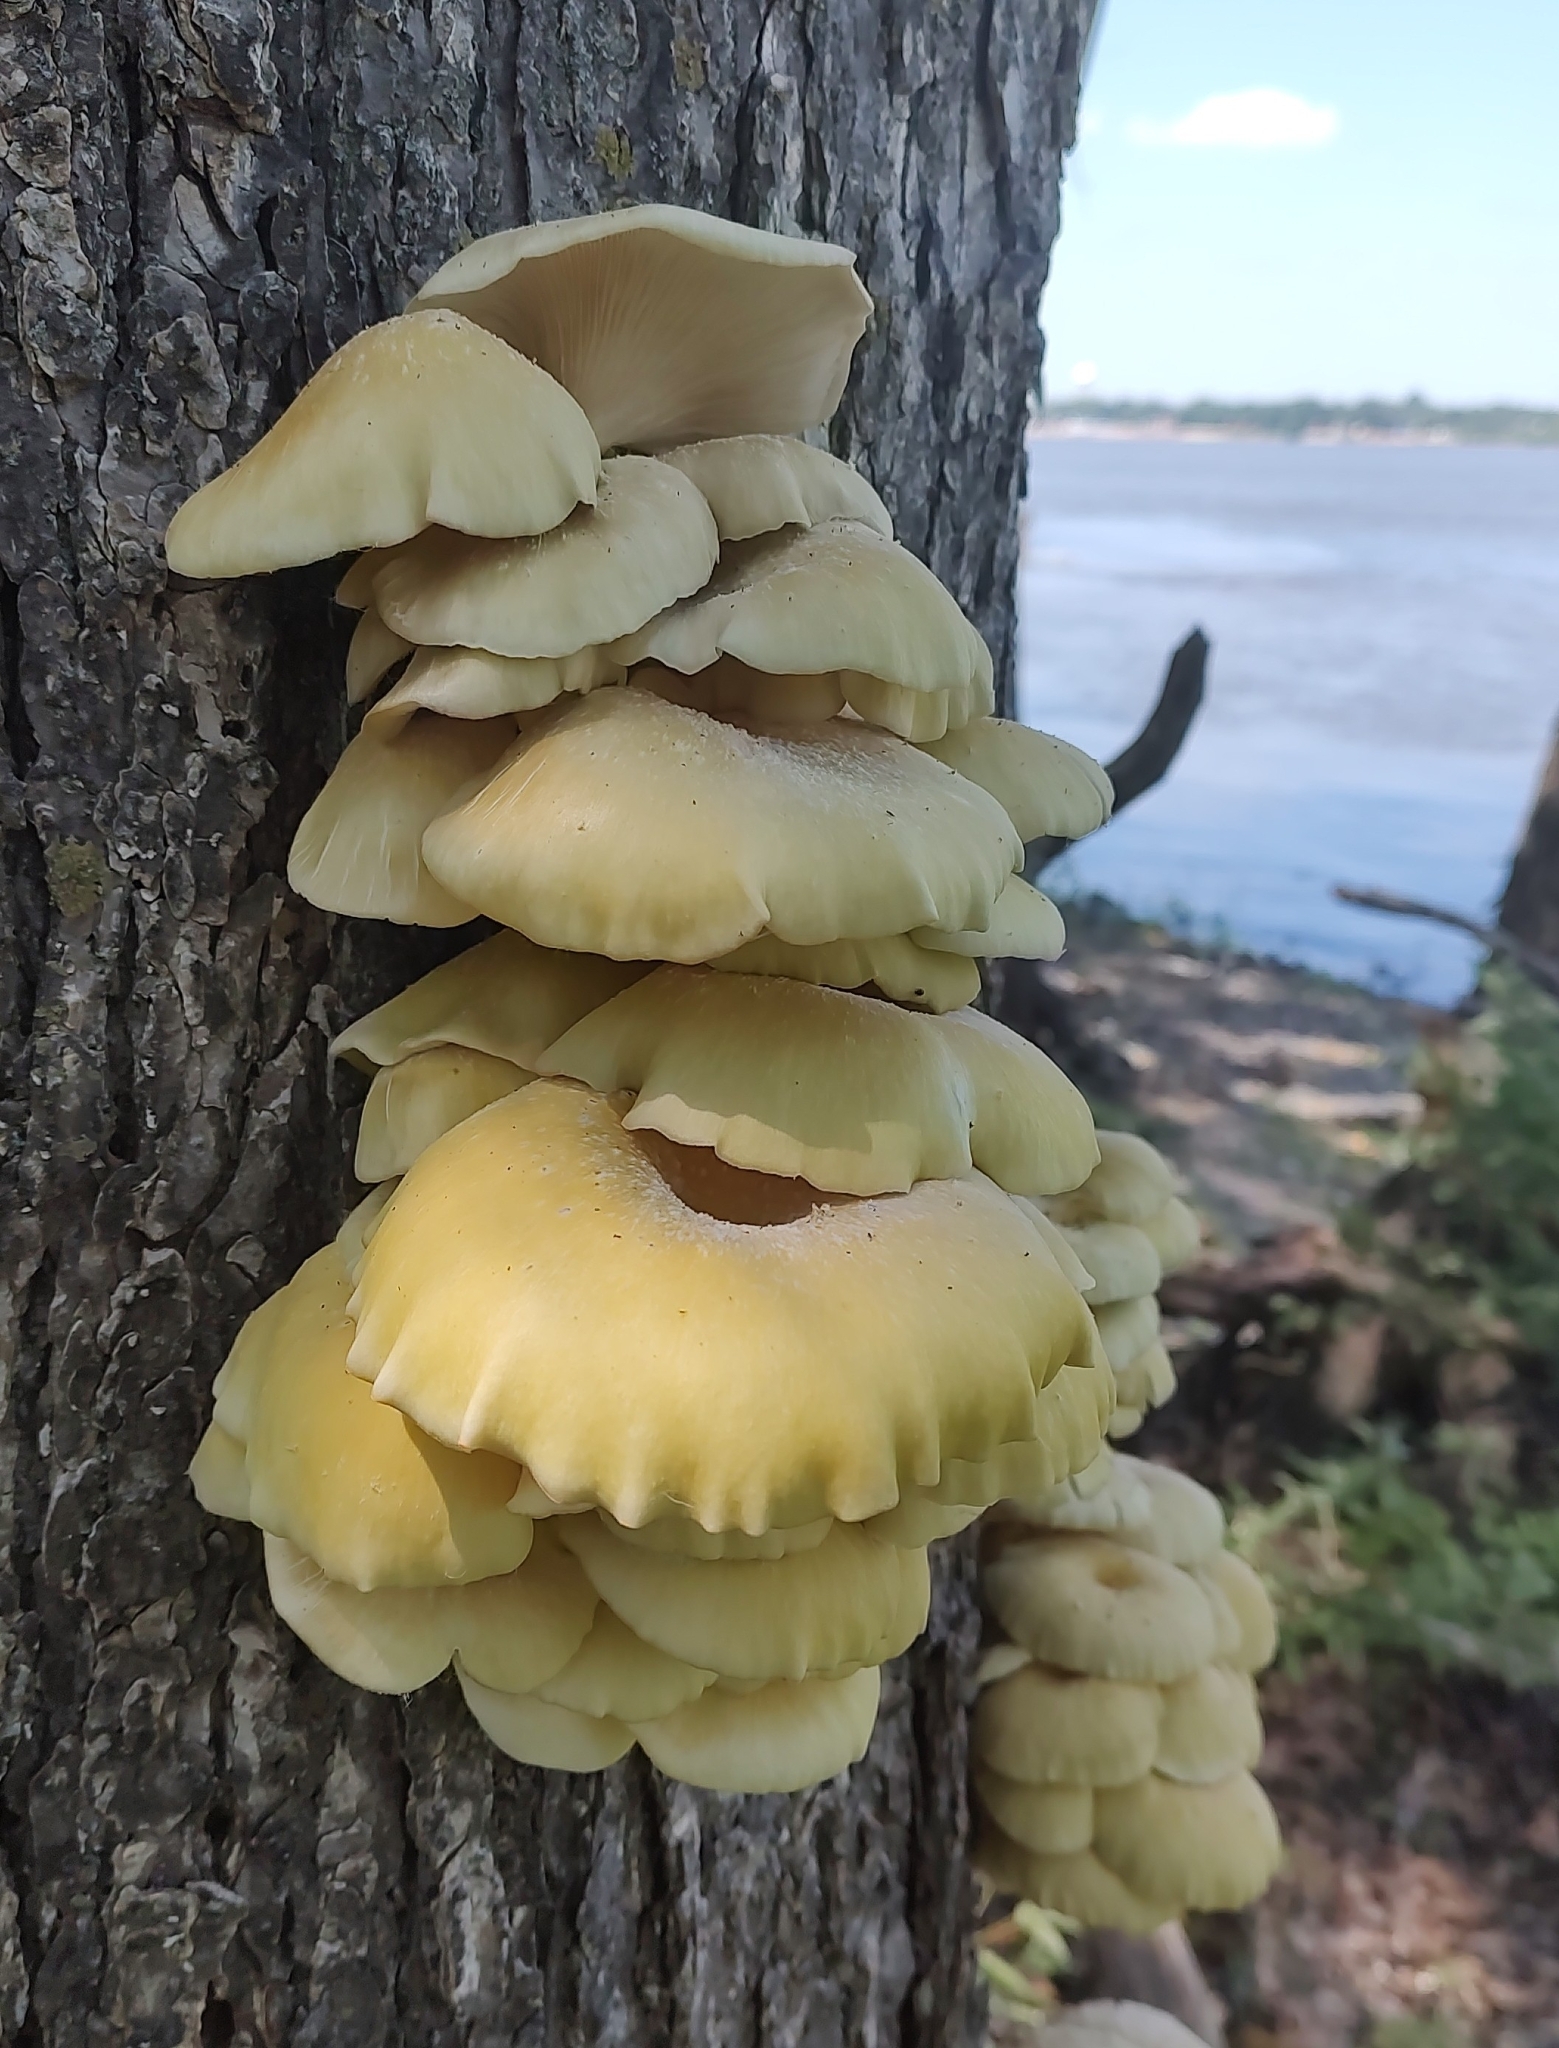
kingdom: Fungi
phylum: Basidiomycota
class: Agaricomycetes
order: Agaricales
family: Pleurotaceae
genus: Pleurotus
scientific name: Pleurotus citrinopileatus
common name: Golden oyster mushroom
